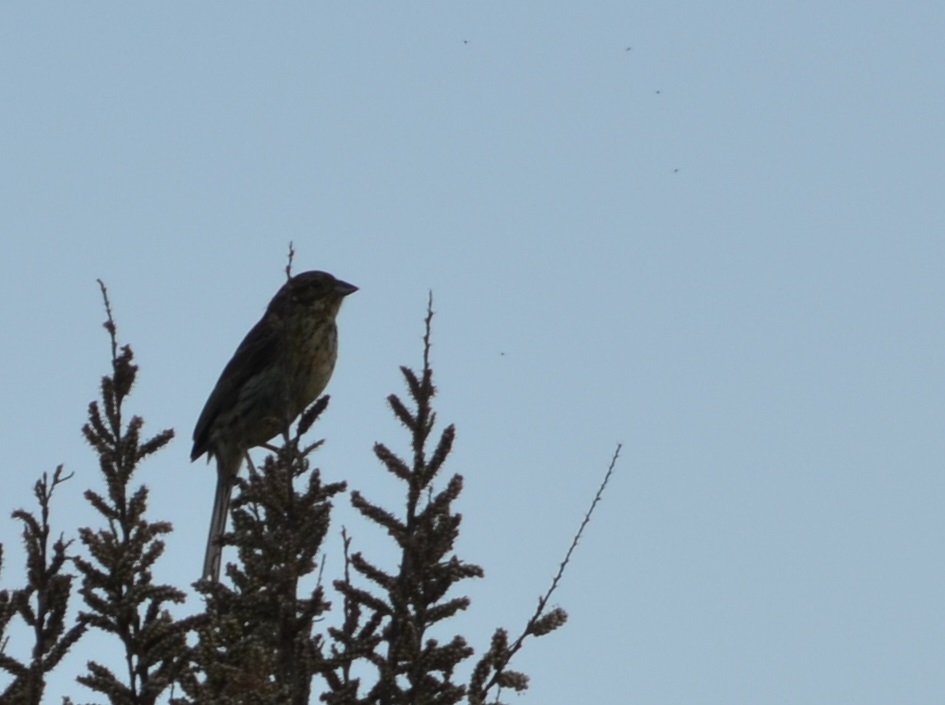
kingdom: Animalia
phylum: Chordata
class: Aves
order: Passeriformes
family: Emberizidae
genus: Emberiza
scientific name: Emberiza calandra
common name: Corn bunting
